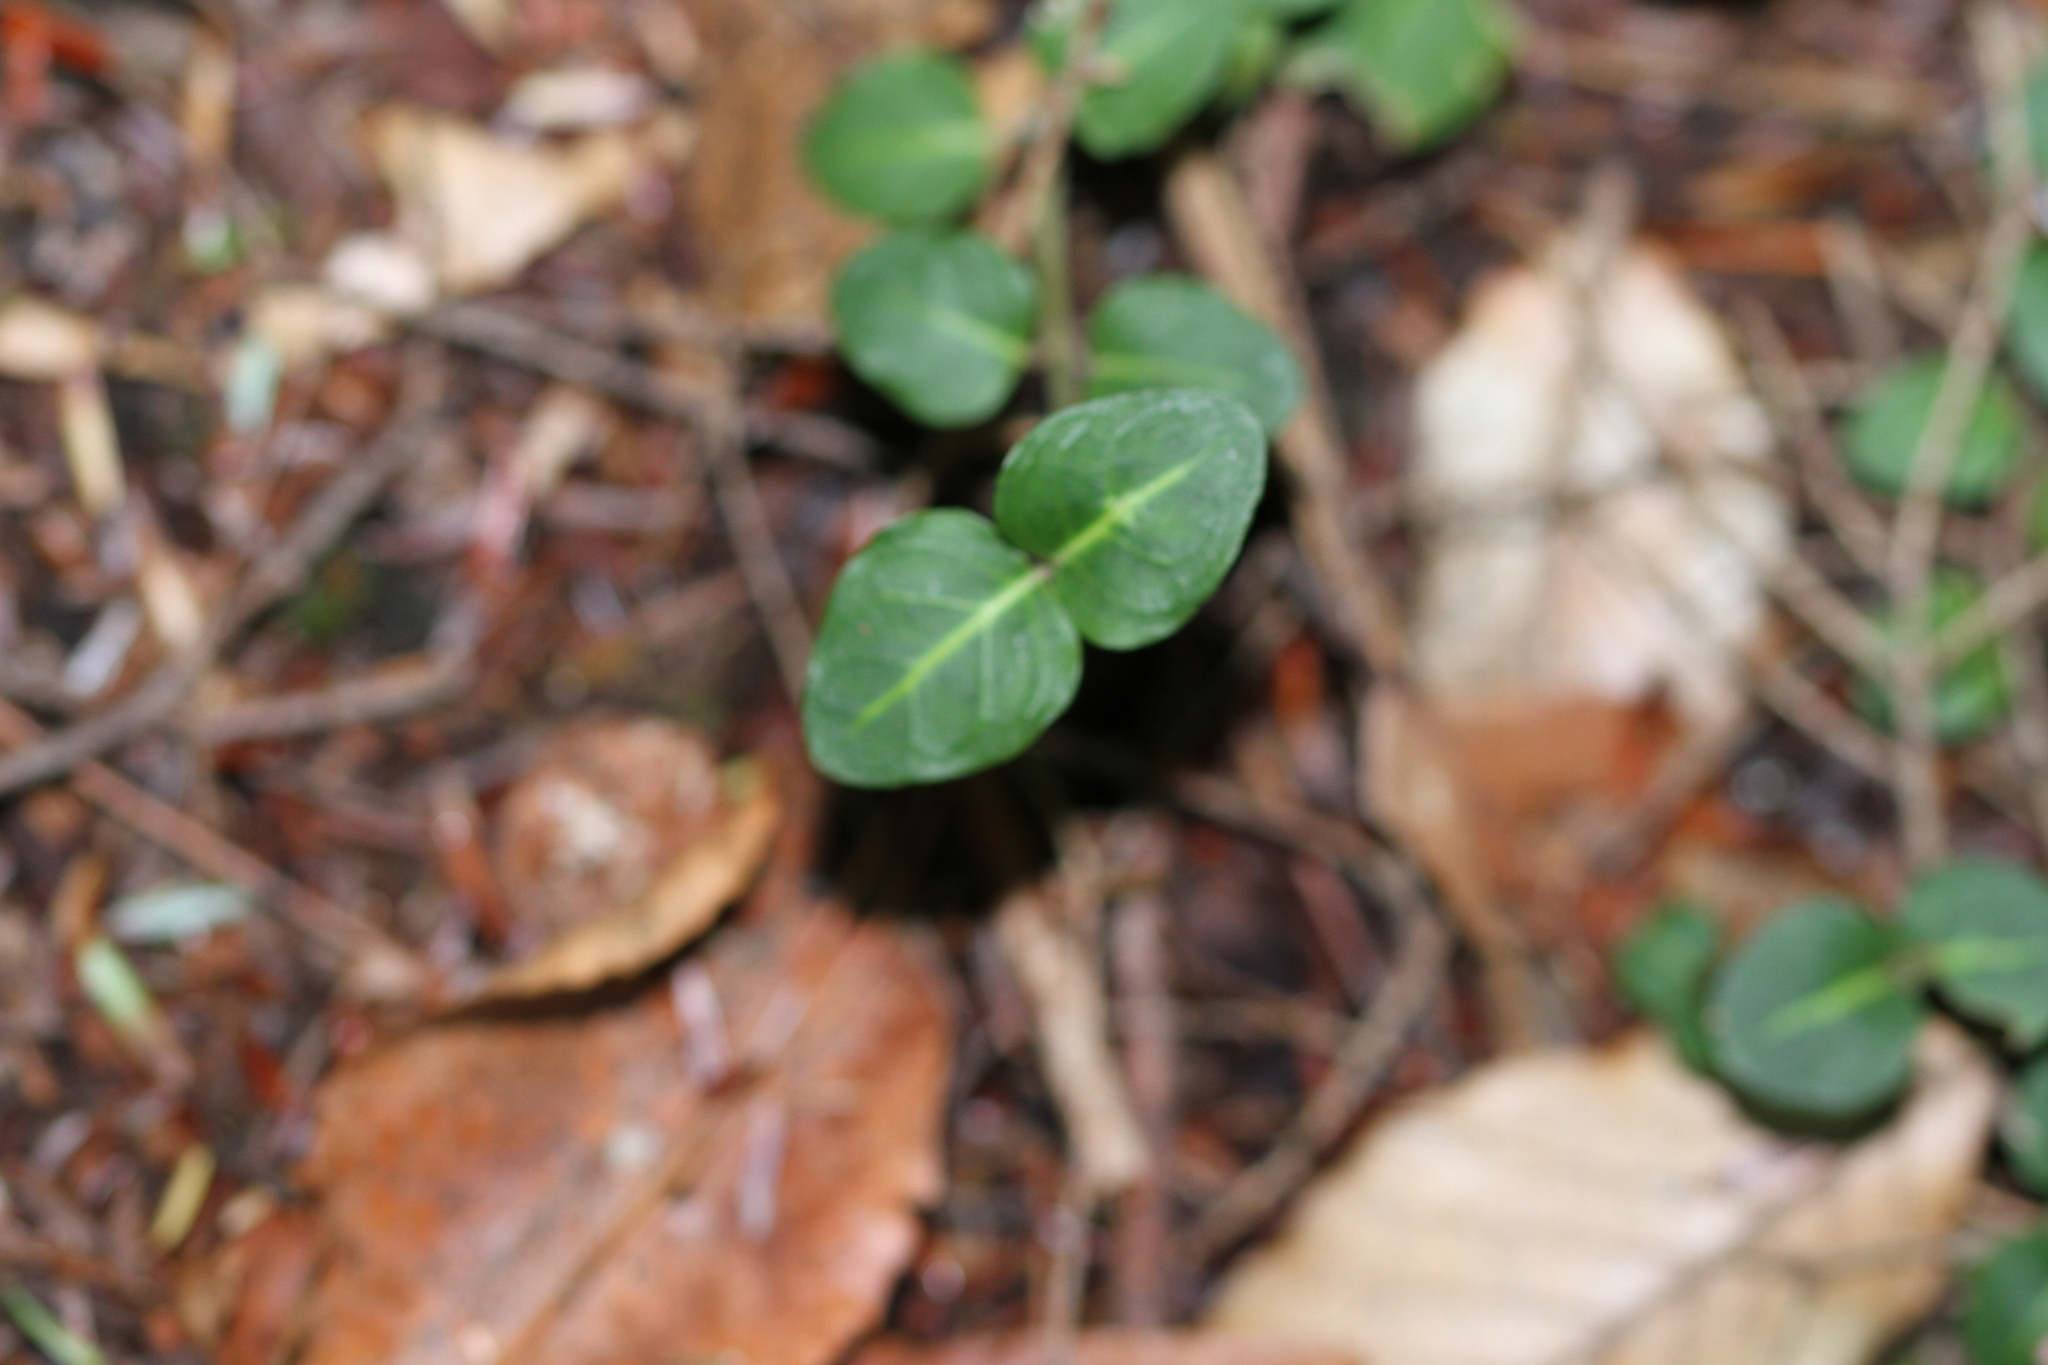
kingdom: Plantae
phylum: Tracheophyta
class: Magnoliopsida
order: Gentianales
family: Rubiaceae
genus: Mitchella
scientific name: Mitchella repens
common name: Partridge-berry
